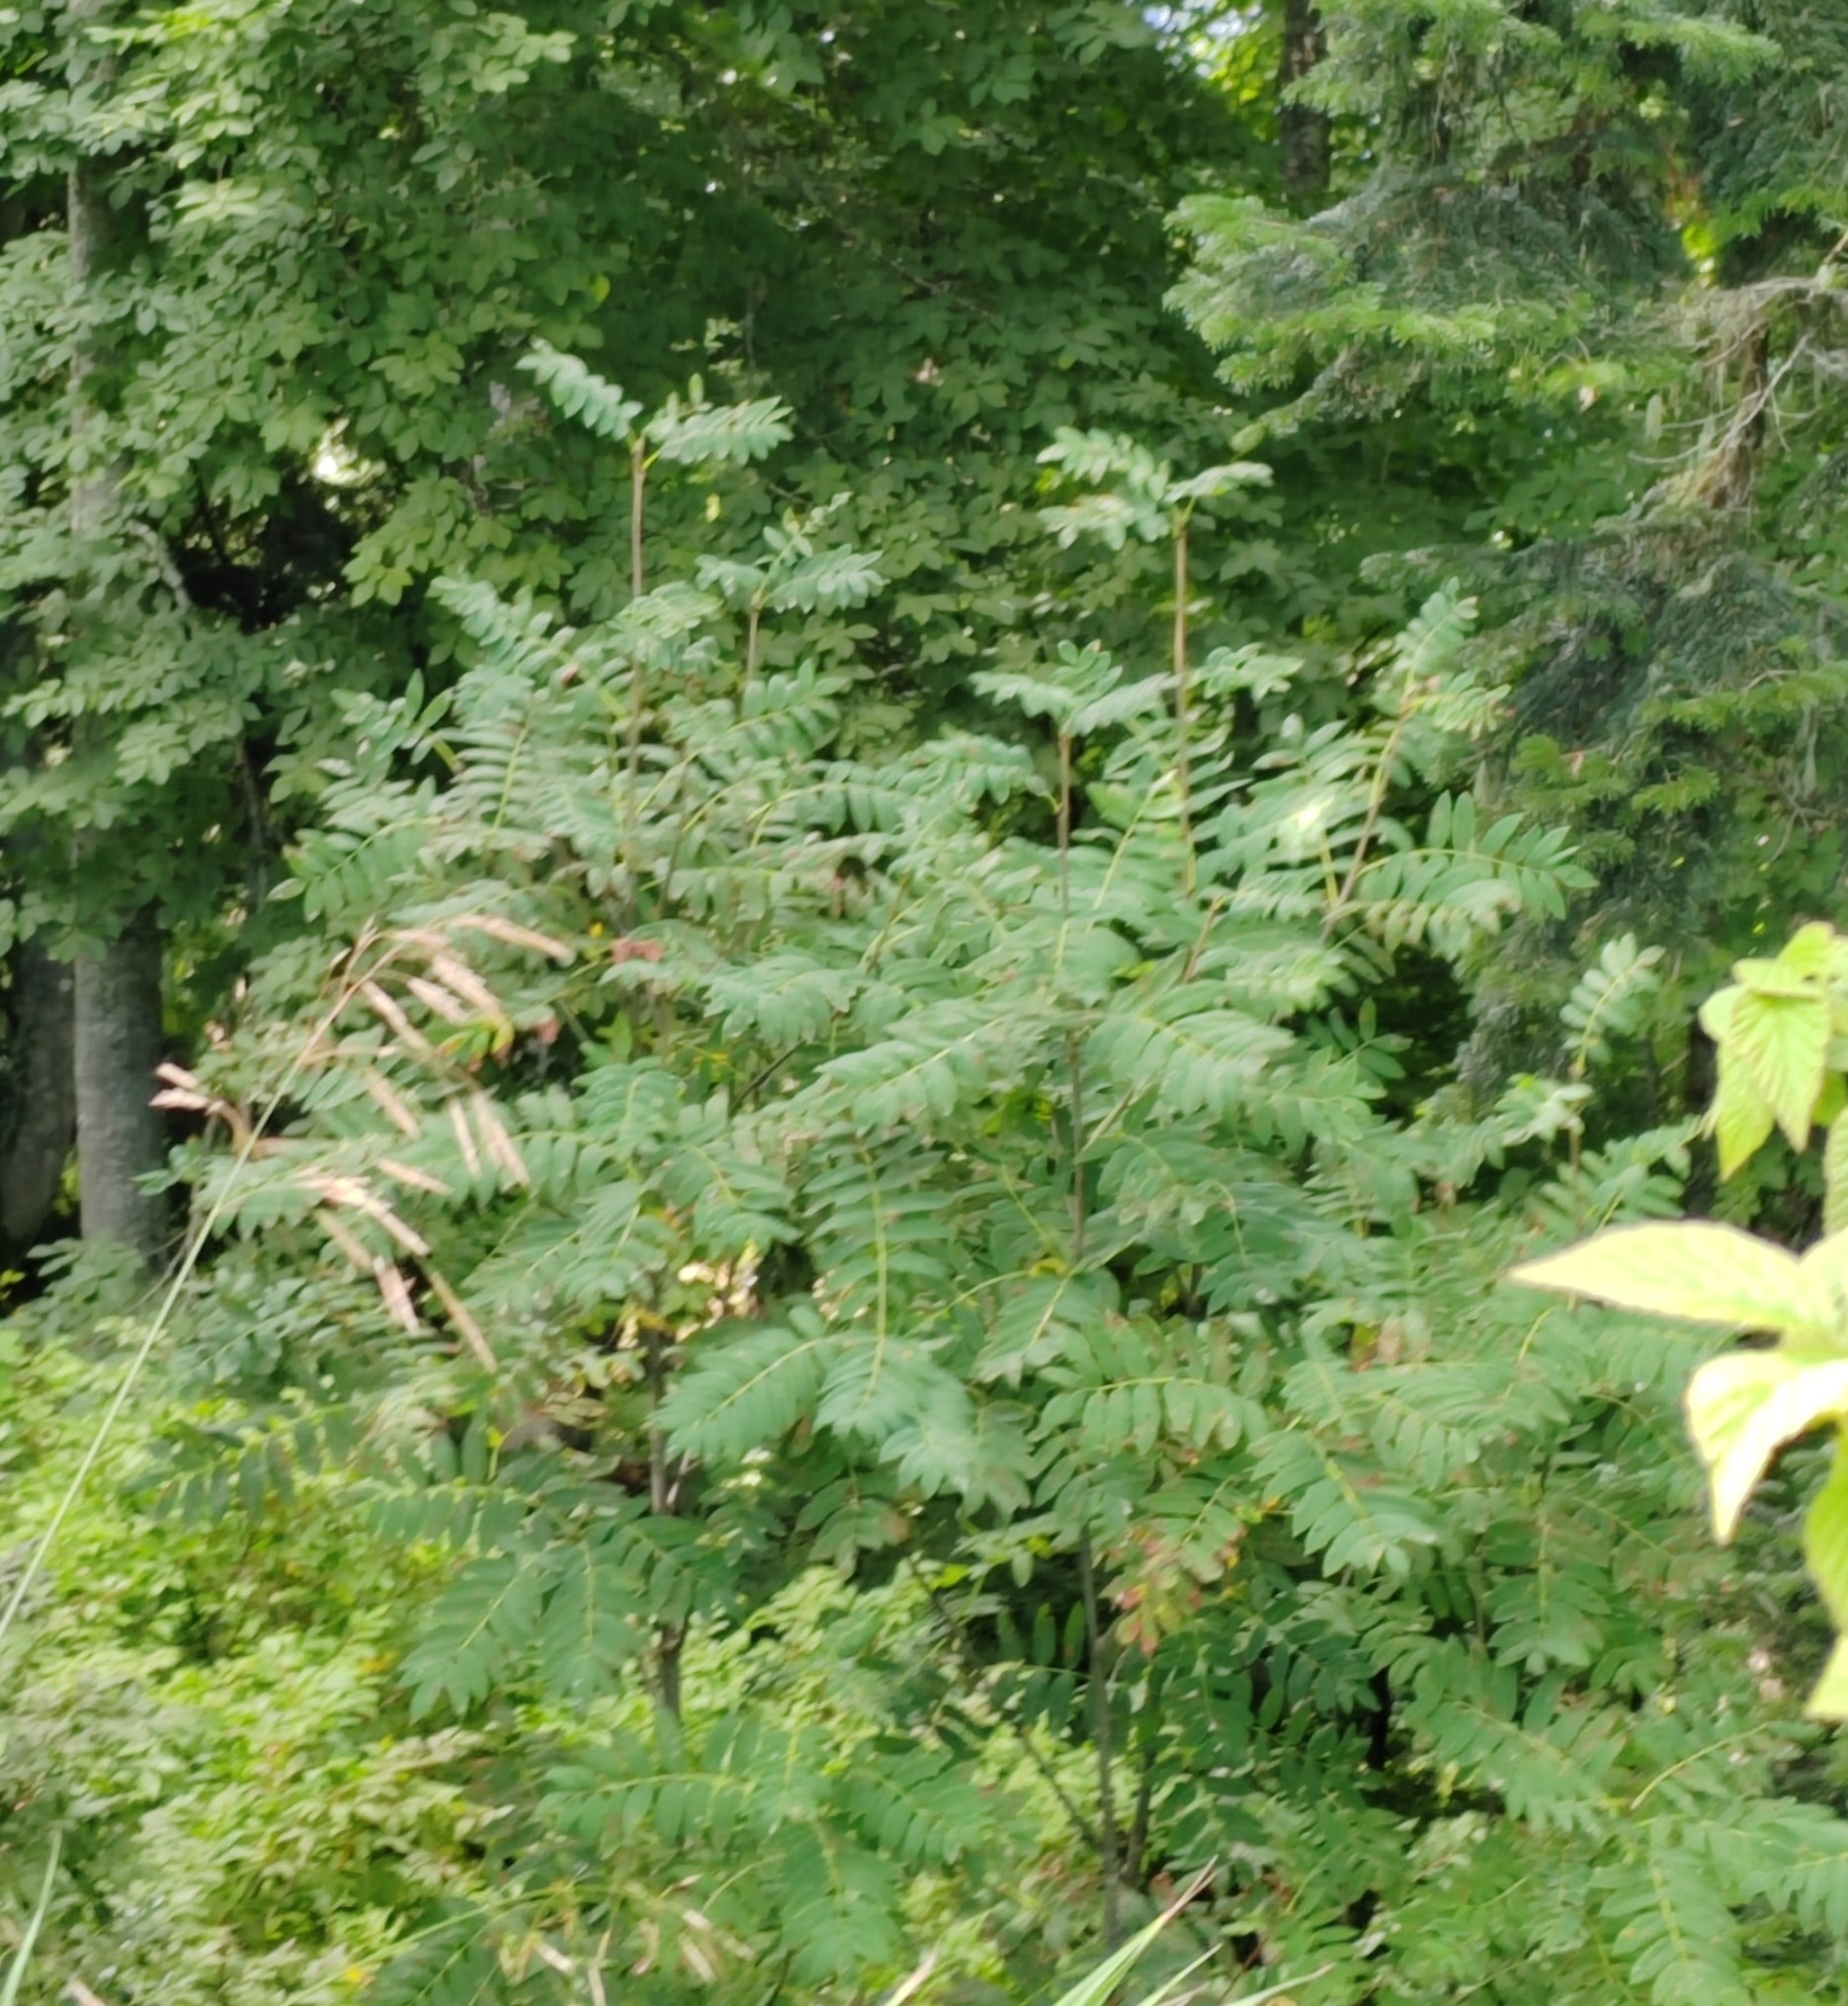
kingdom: Plantae
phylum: Tracheophyta
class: Magnoliopsida
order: Rosales
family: Rosaceae
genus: Sorbus
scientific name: Sorbus aucuparia
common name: Rowan
